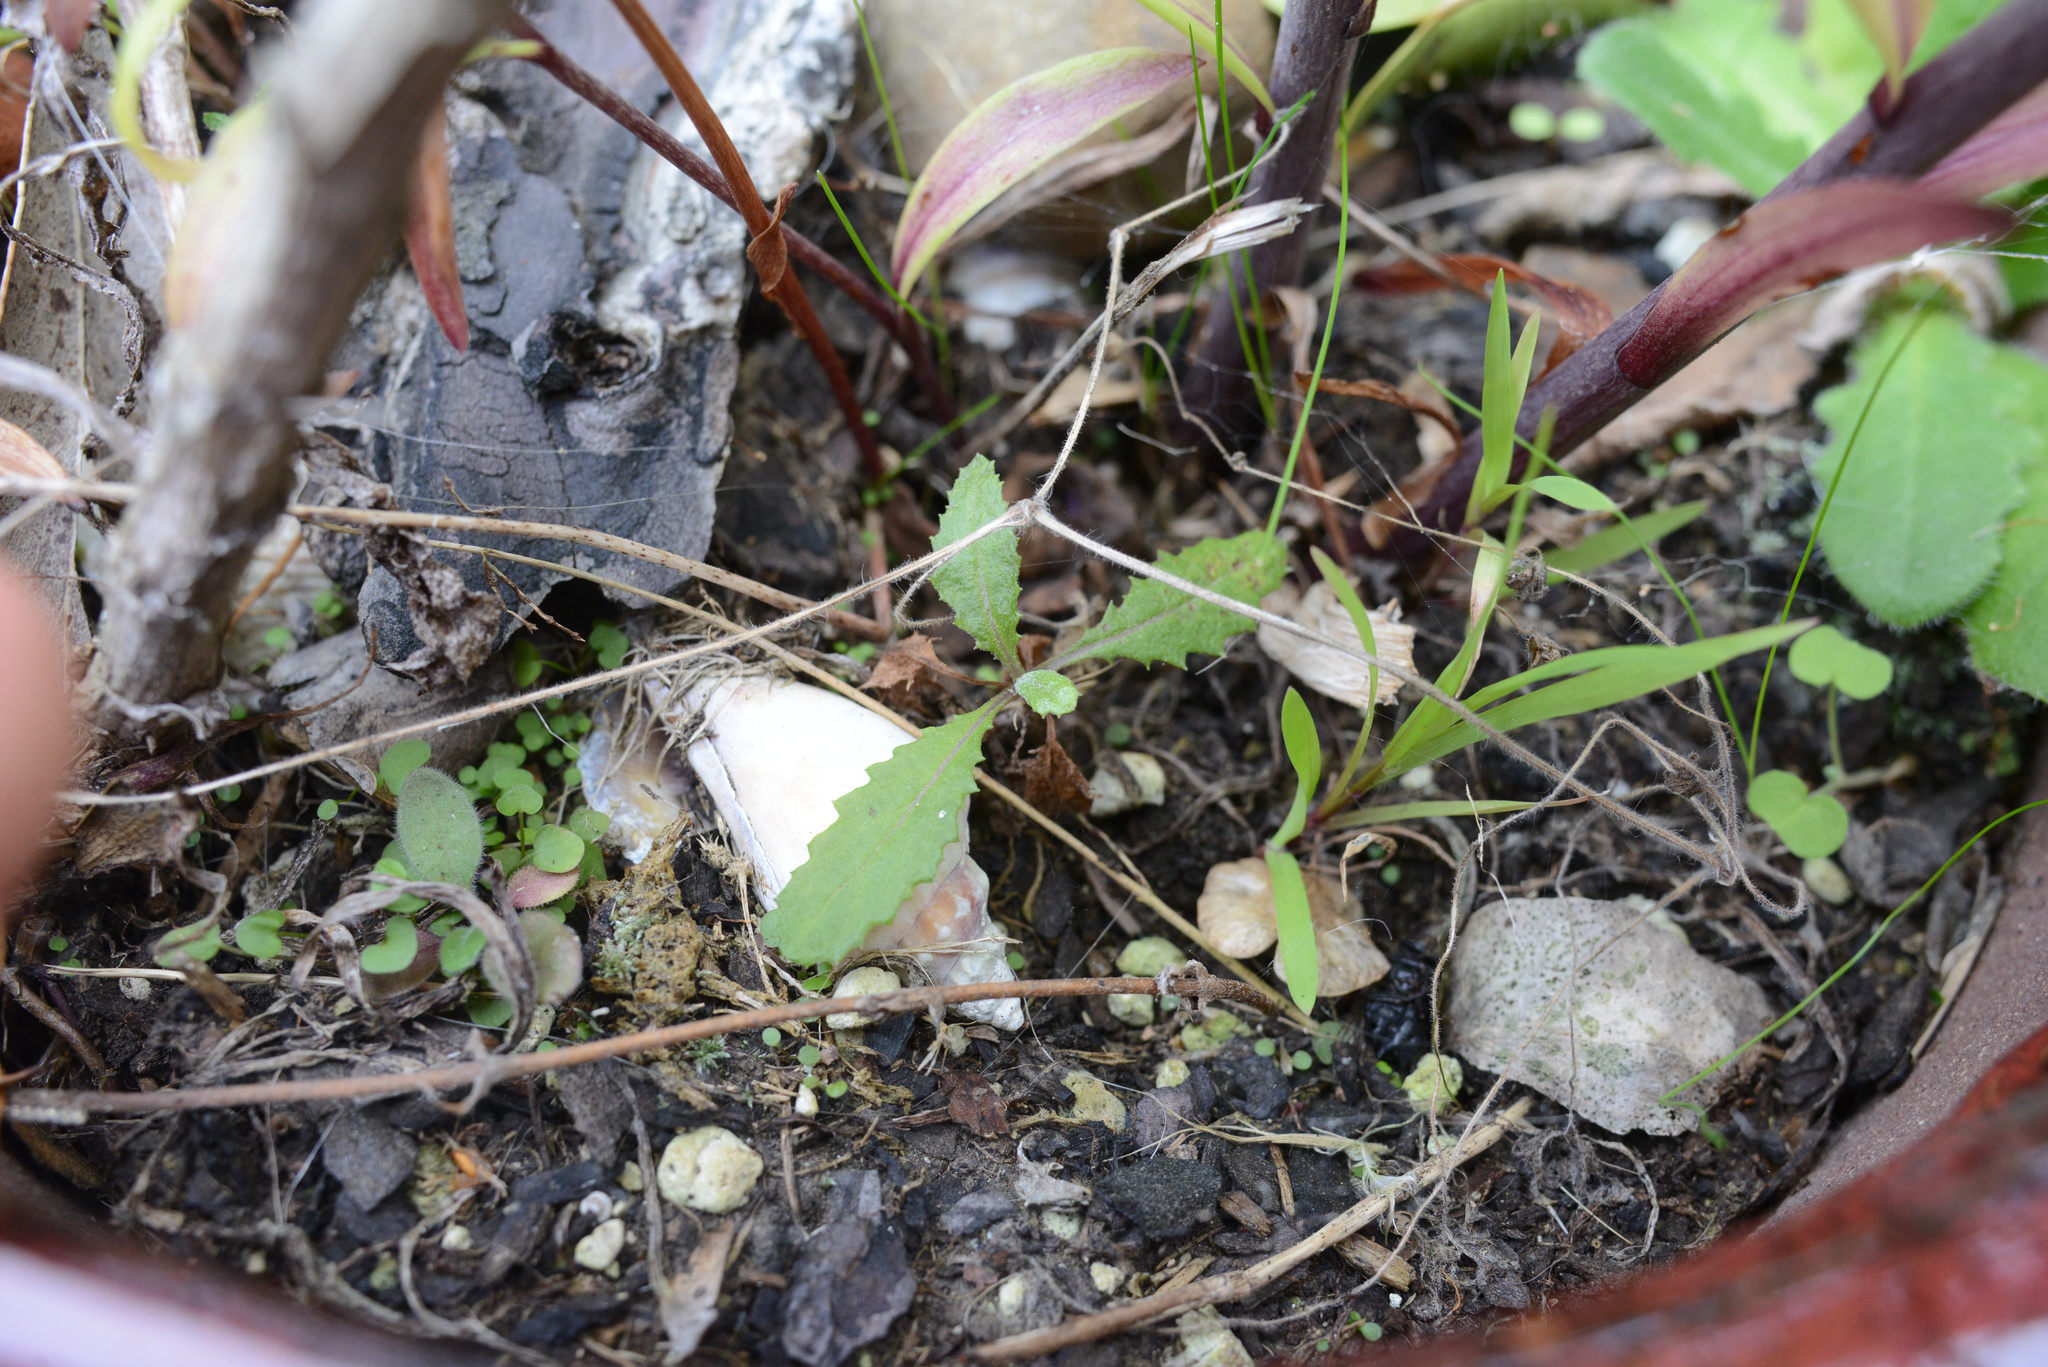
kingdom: Plantae
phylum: Tracheophyta
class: Magnoliopsida
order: Asterales
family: Asteraceae
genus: Senecio
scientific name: Senecio minimus
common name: Toothed fireweed
